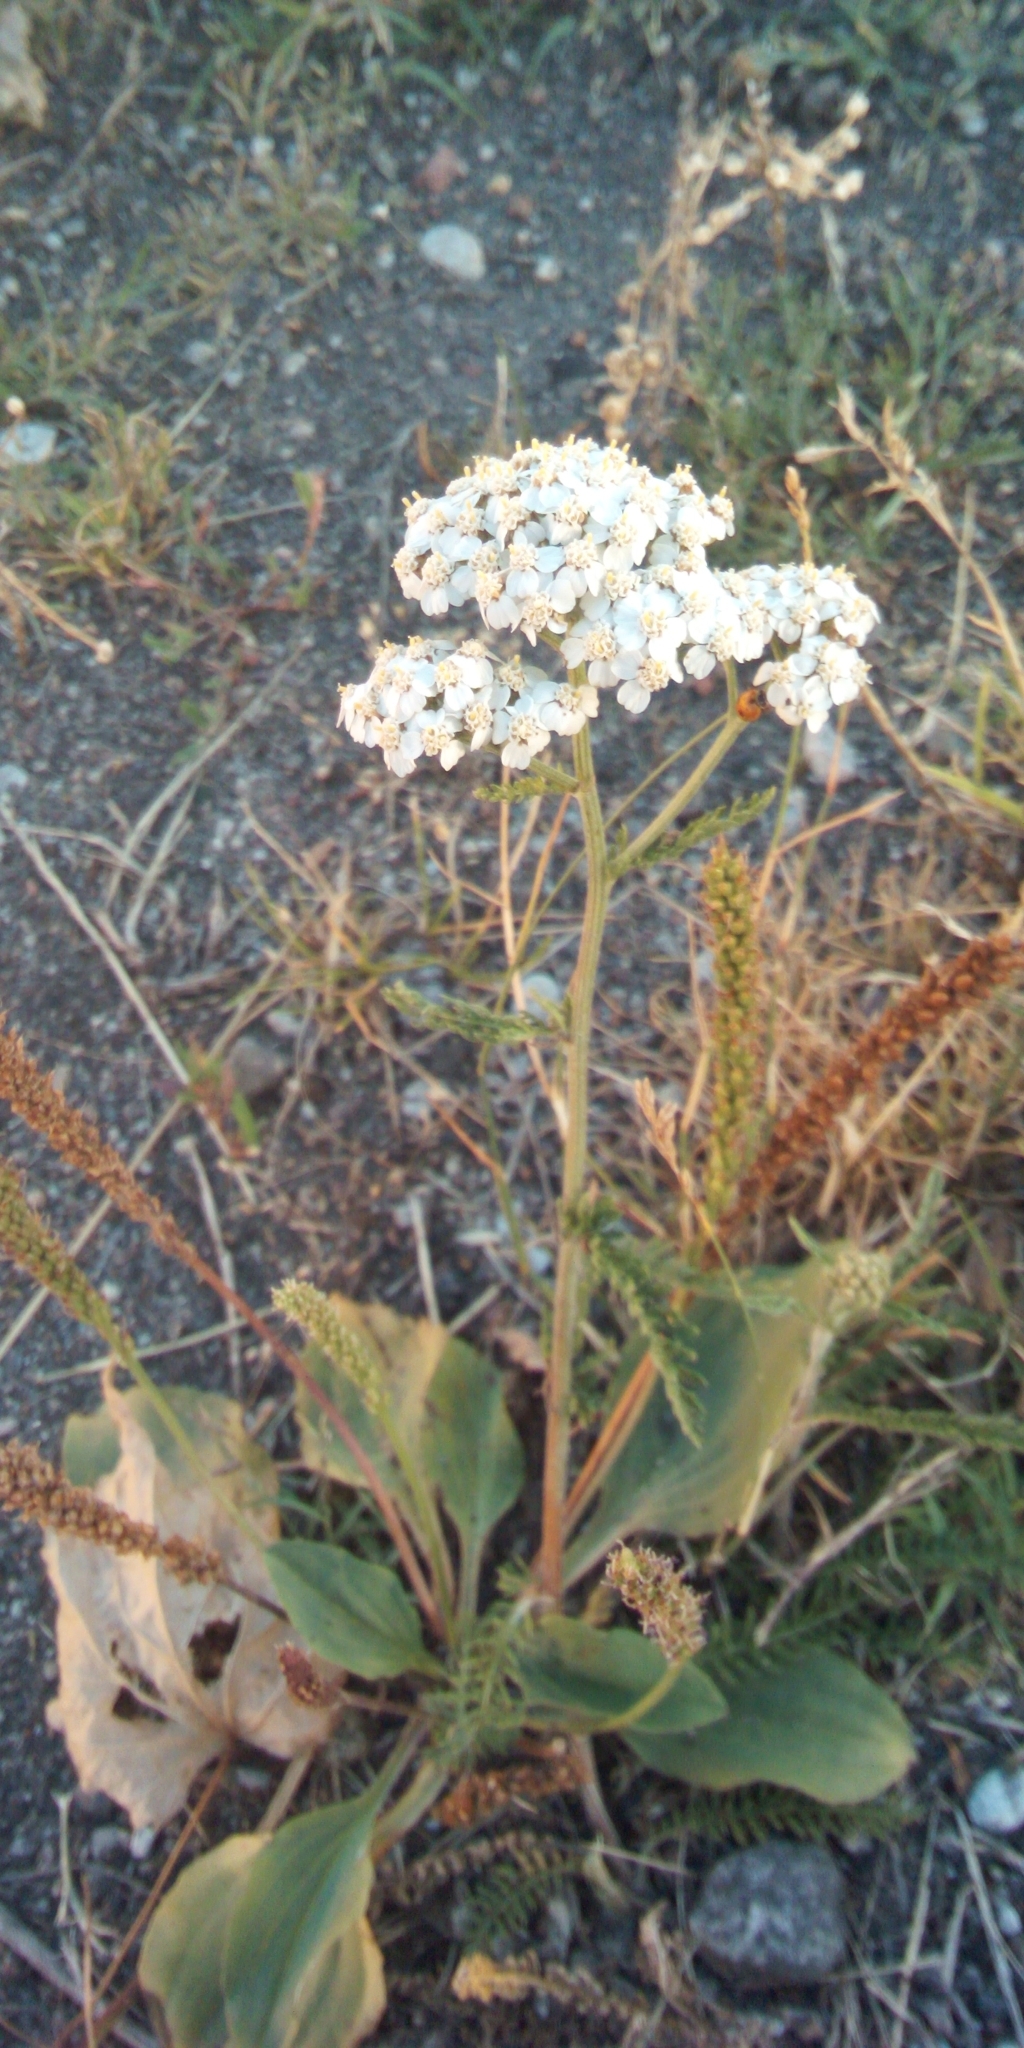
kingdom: Plantae
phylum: Tracheophyta
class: Magnoliopsida
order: Asterales
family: Asteraceae
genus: Achillea
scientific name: Achillea millefolium
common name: Yarrow
